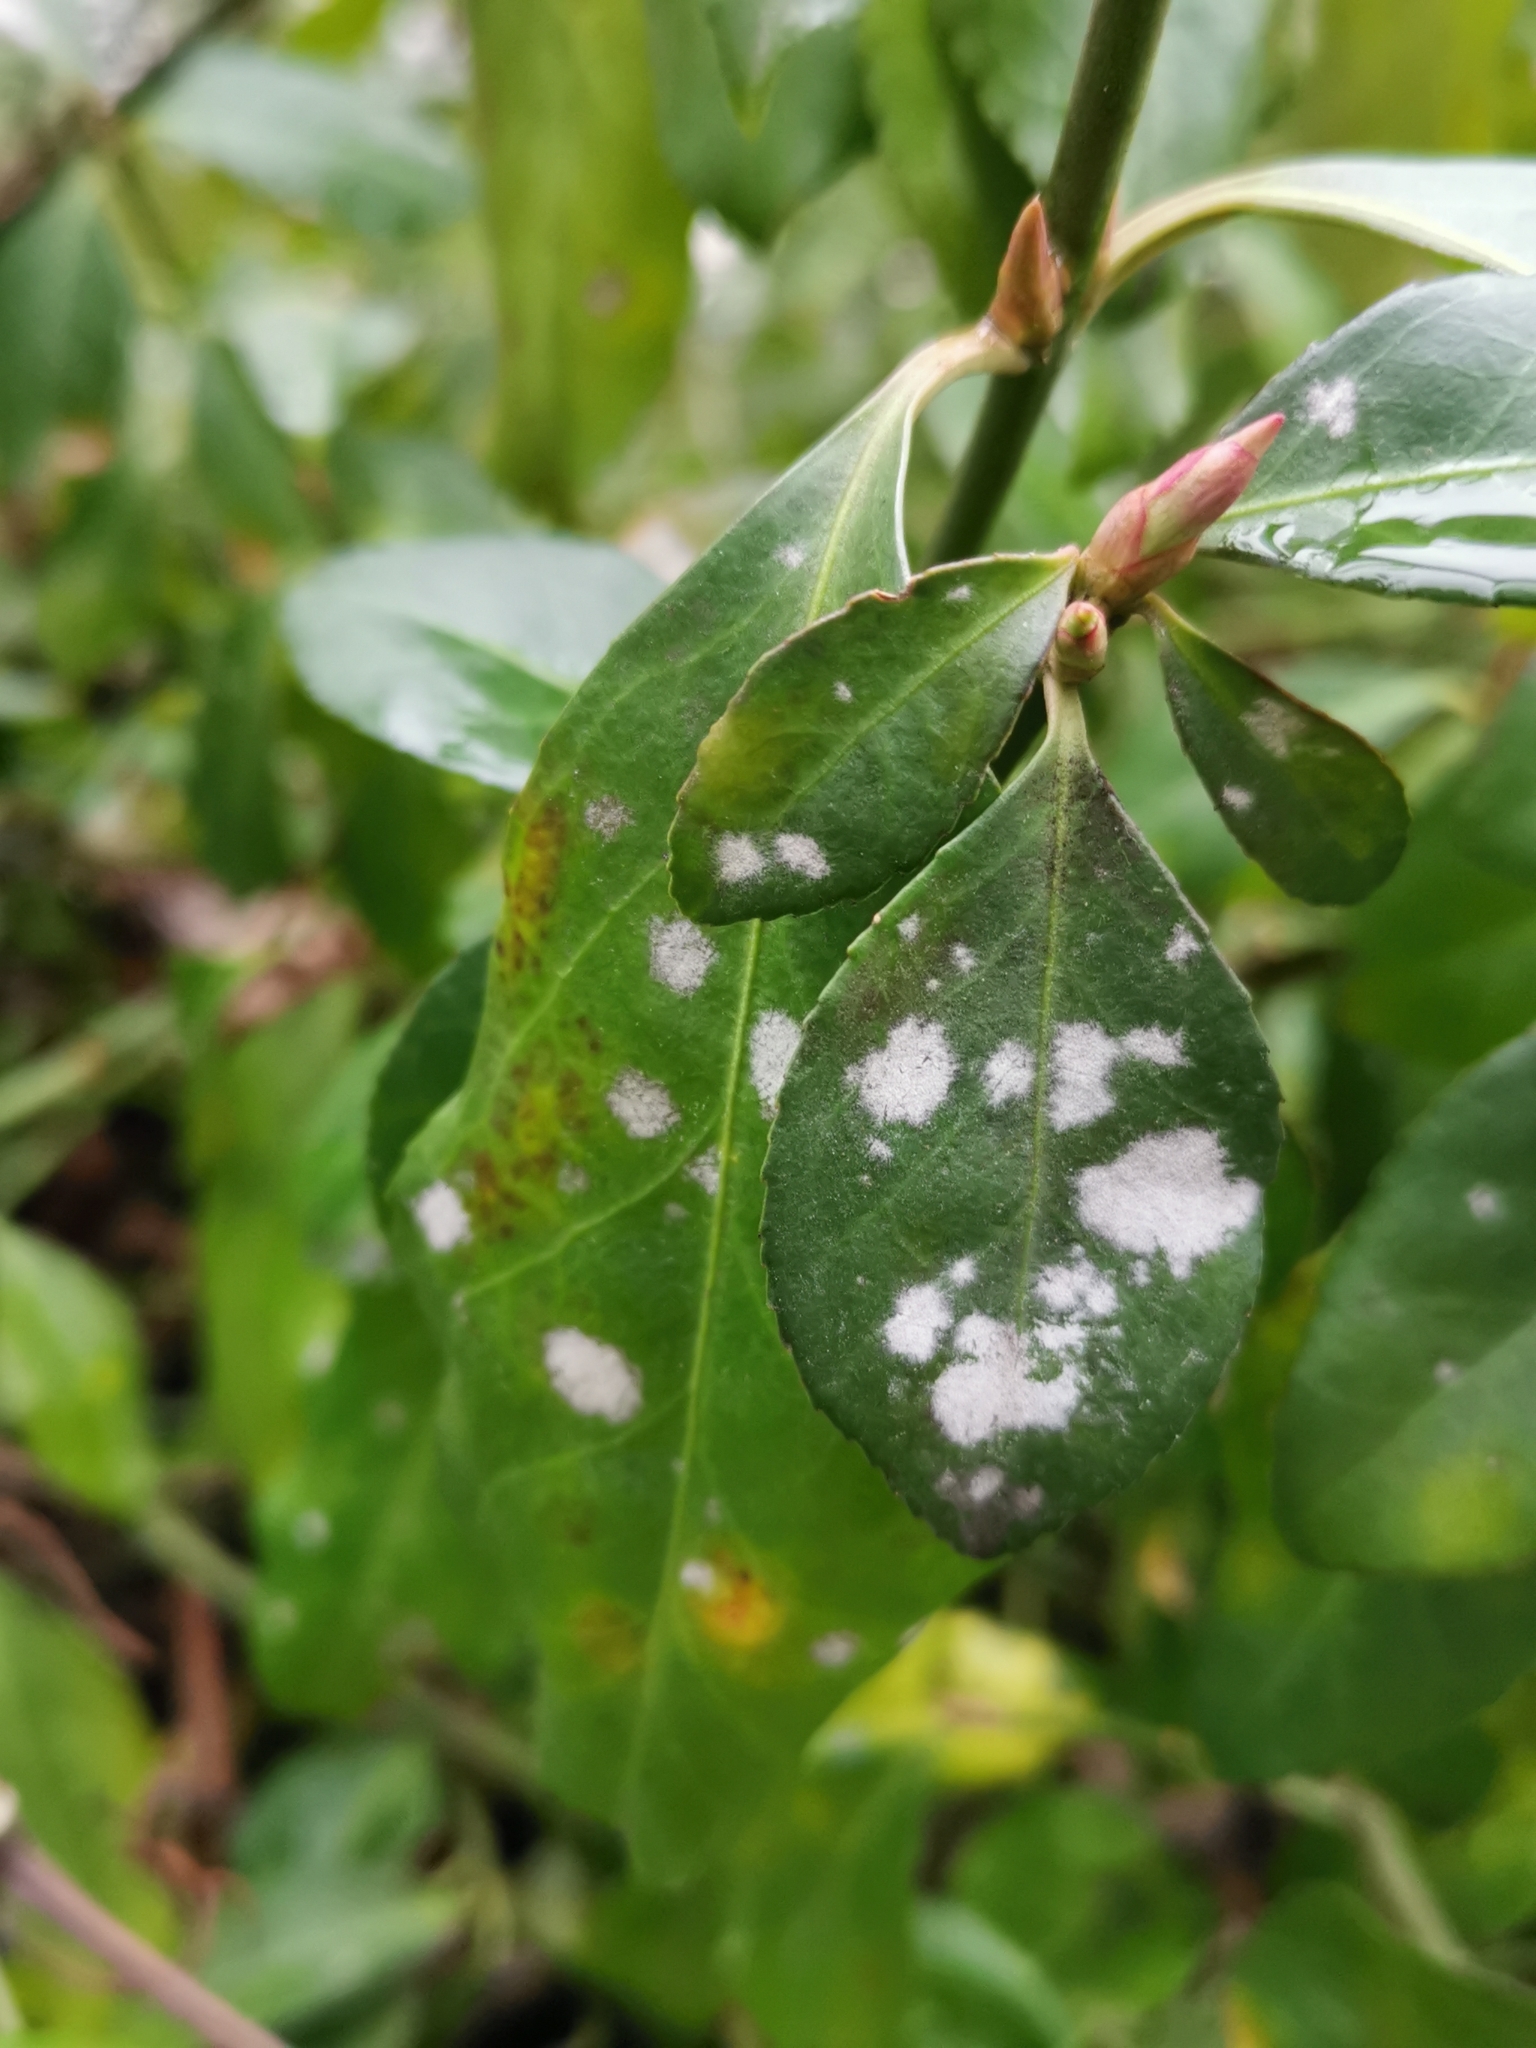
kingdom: Fungi
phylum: Ascomycota
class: Leotiomycetes
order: Helotiales
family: Erysiphaceae
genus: Erysiphe
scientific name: Erysiphe euonymicola
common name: Spindletree mildew
